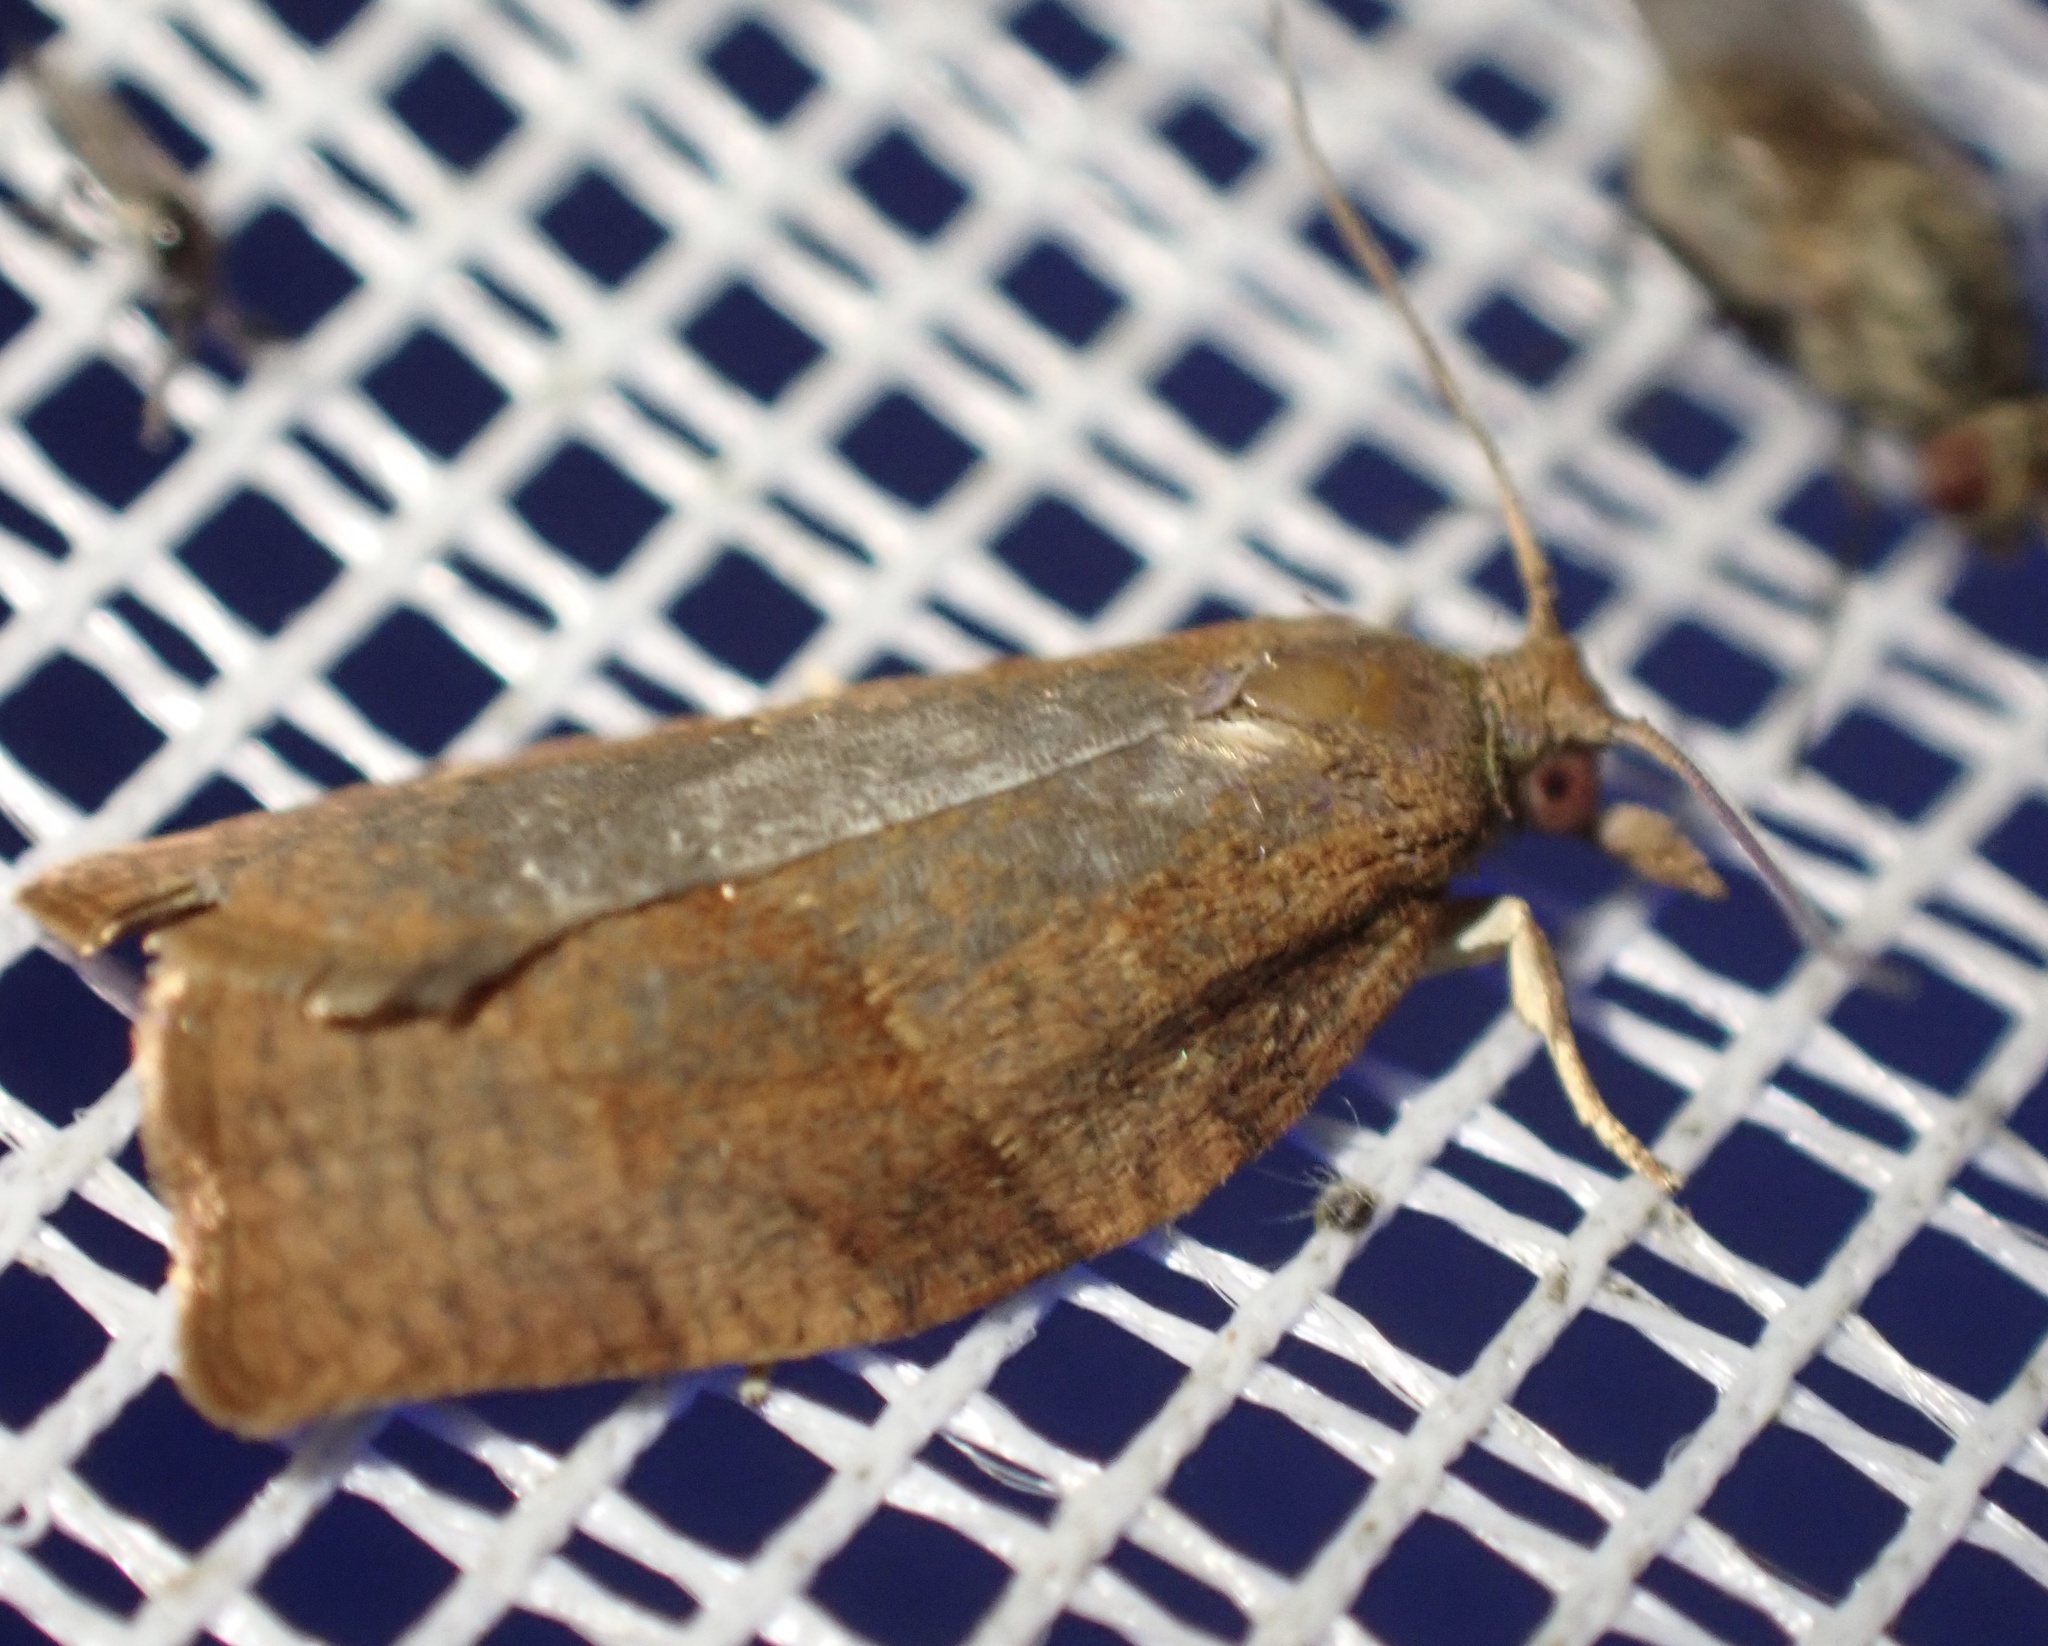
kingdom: Animalia
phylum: Arthropoda
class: Insecta
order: Lepidoptera
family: Tortricidae
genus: Pandemis
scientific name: Pandemis heparana
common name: Dark fruit-tree tortrix
